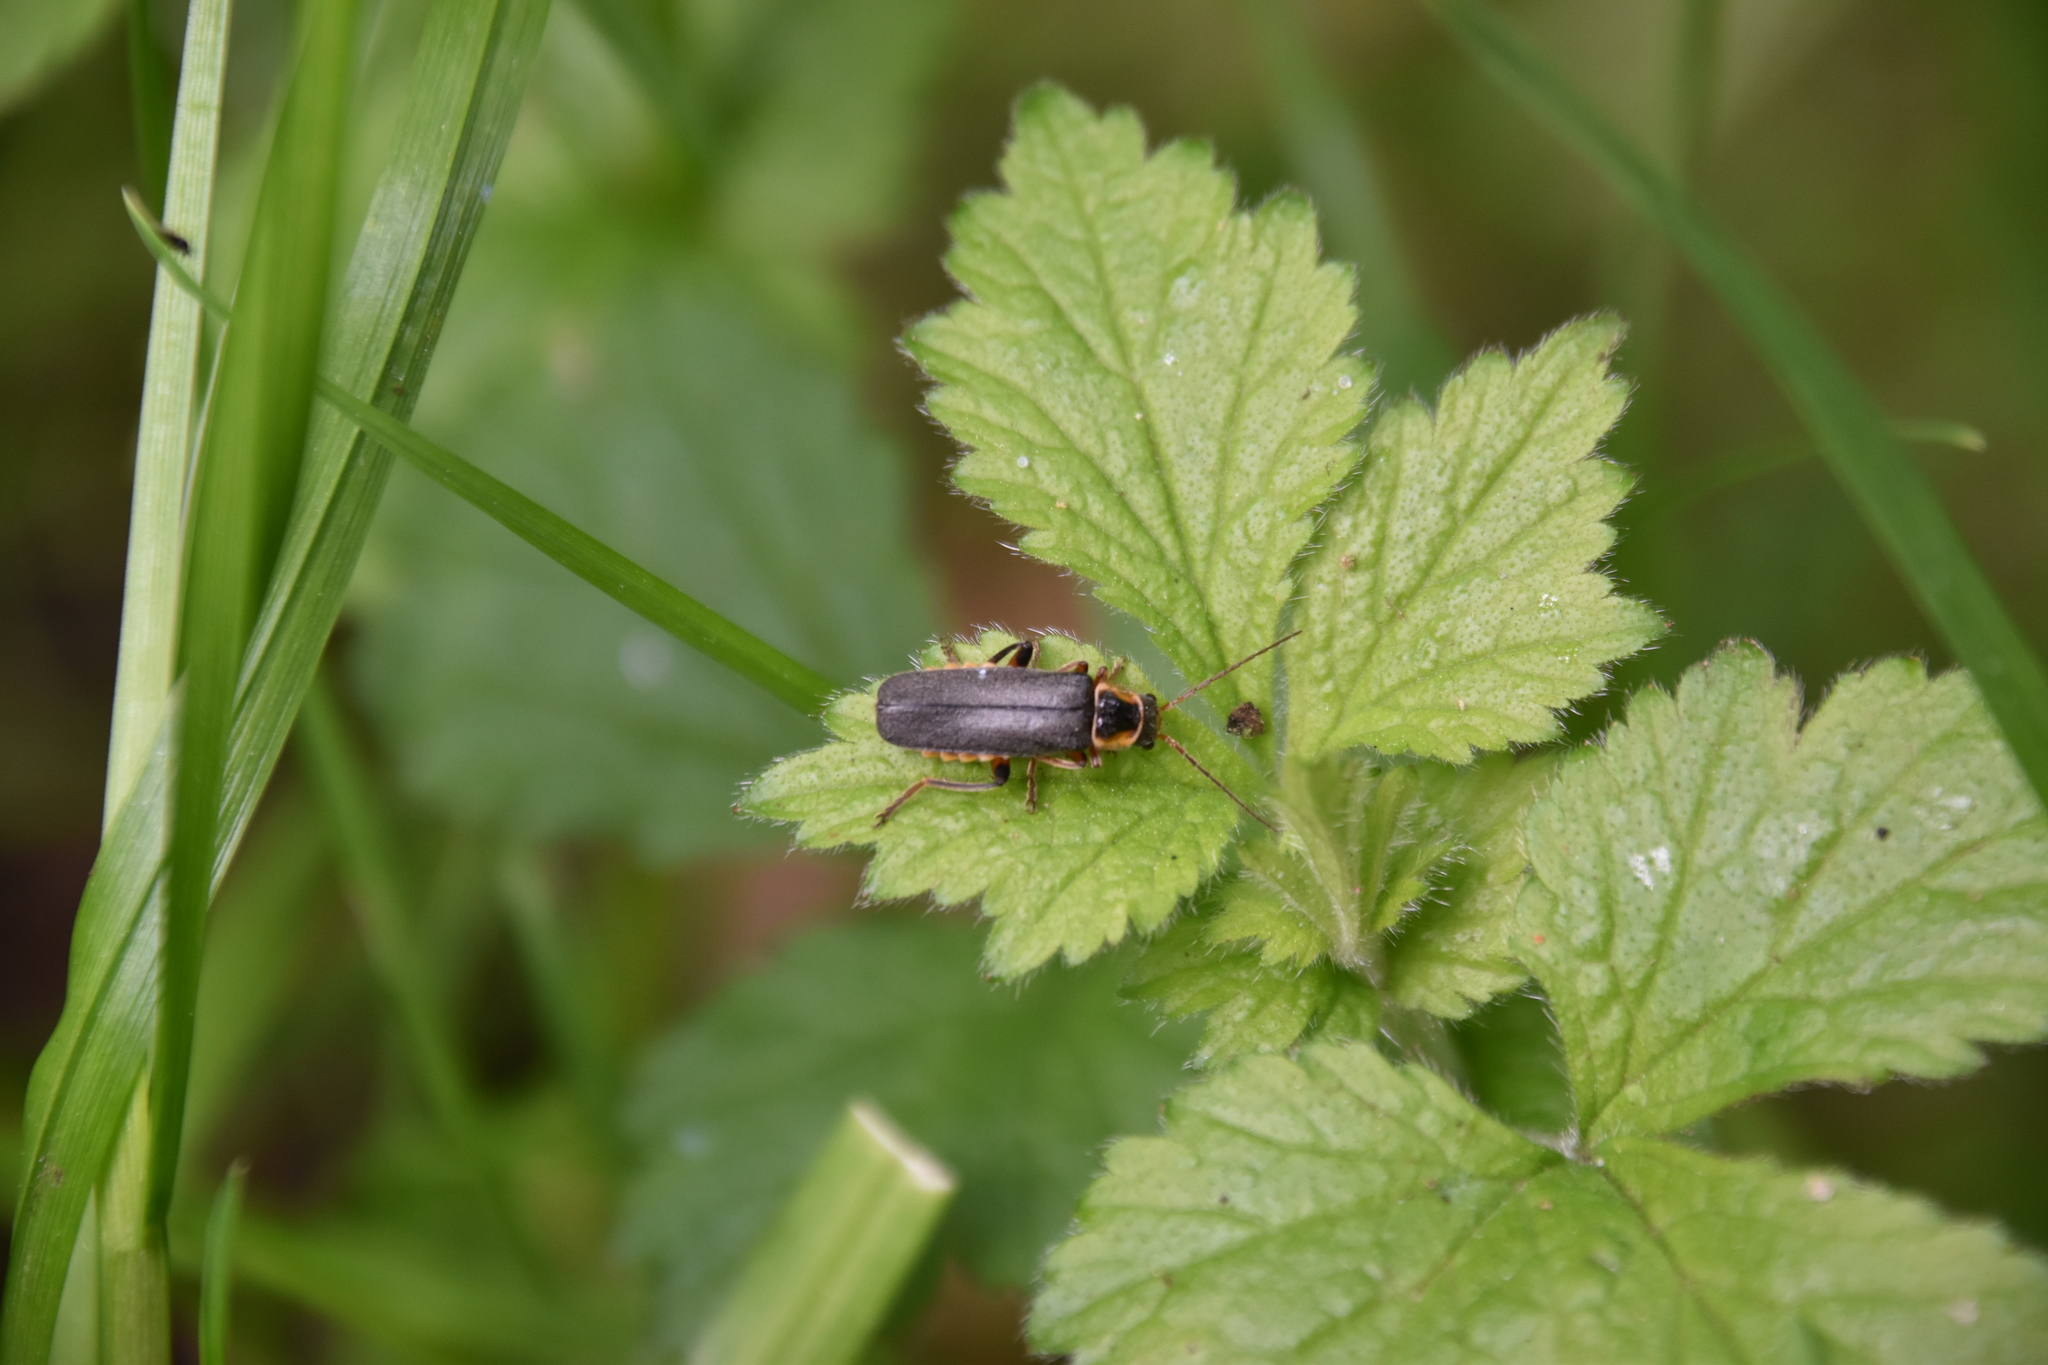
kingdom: Animalia
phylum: Arthropoda
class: Insecta
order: Coleoptera
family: Cantharidae
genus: Cantharis
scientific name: Cantharis nigricans
